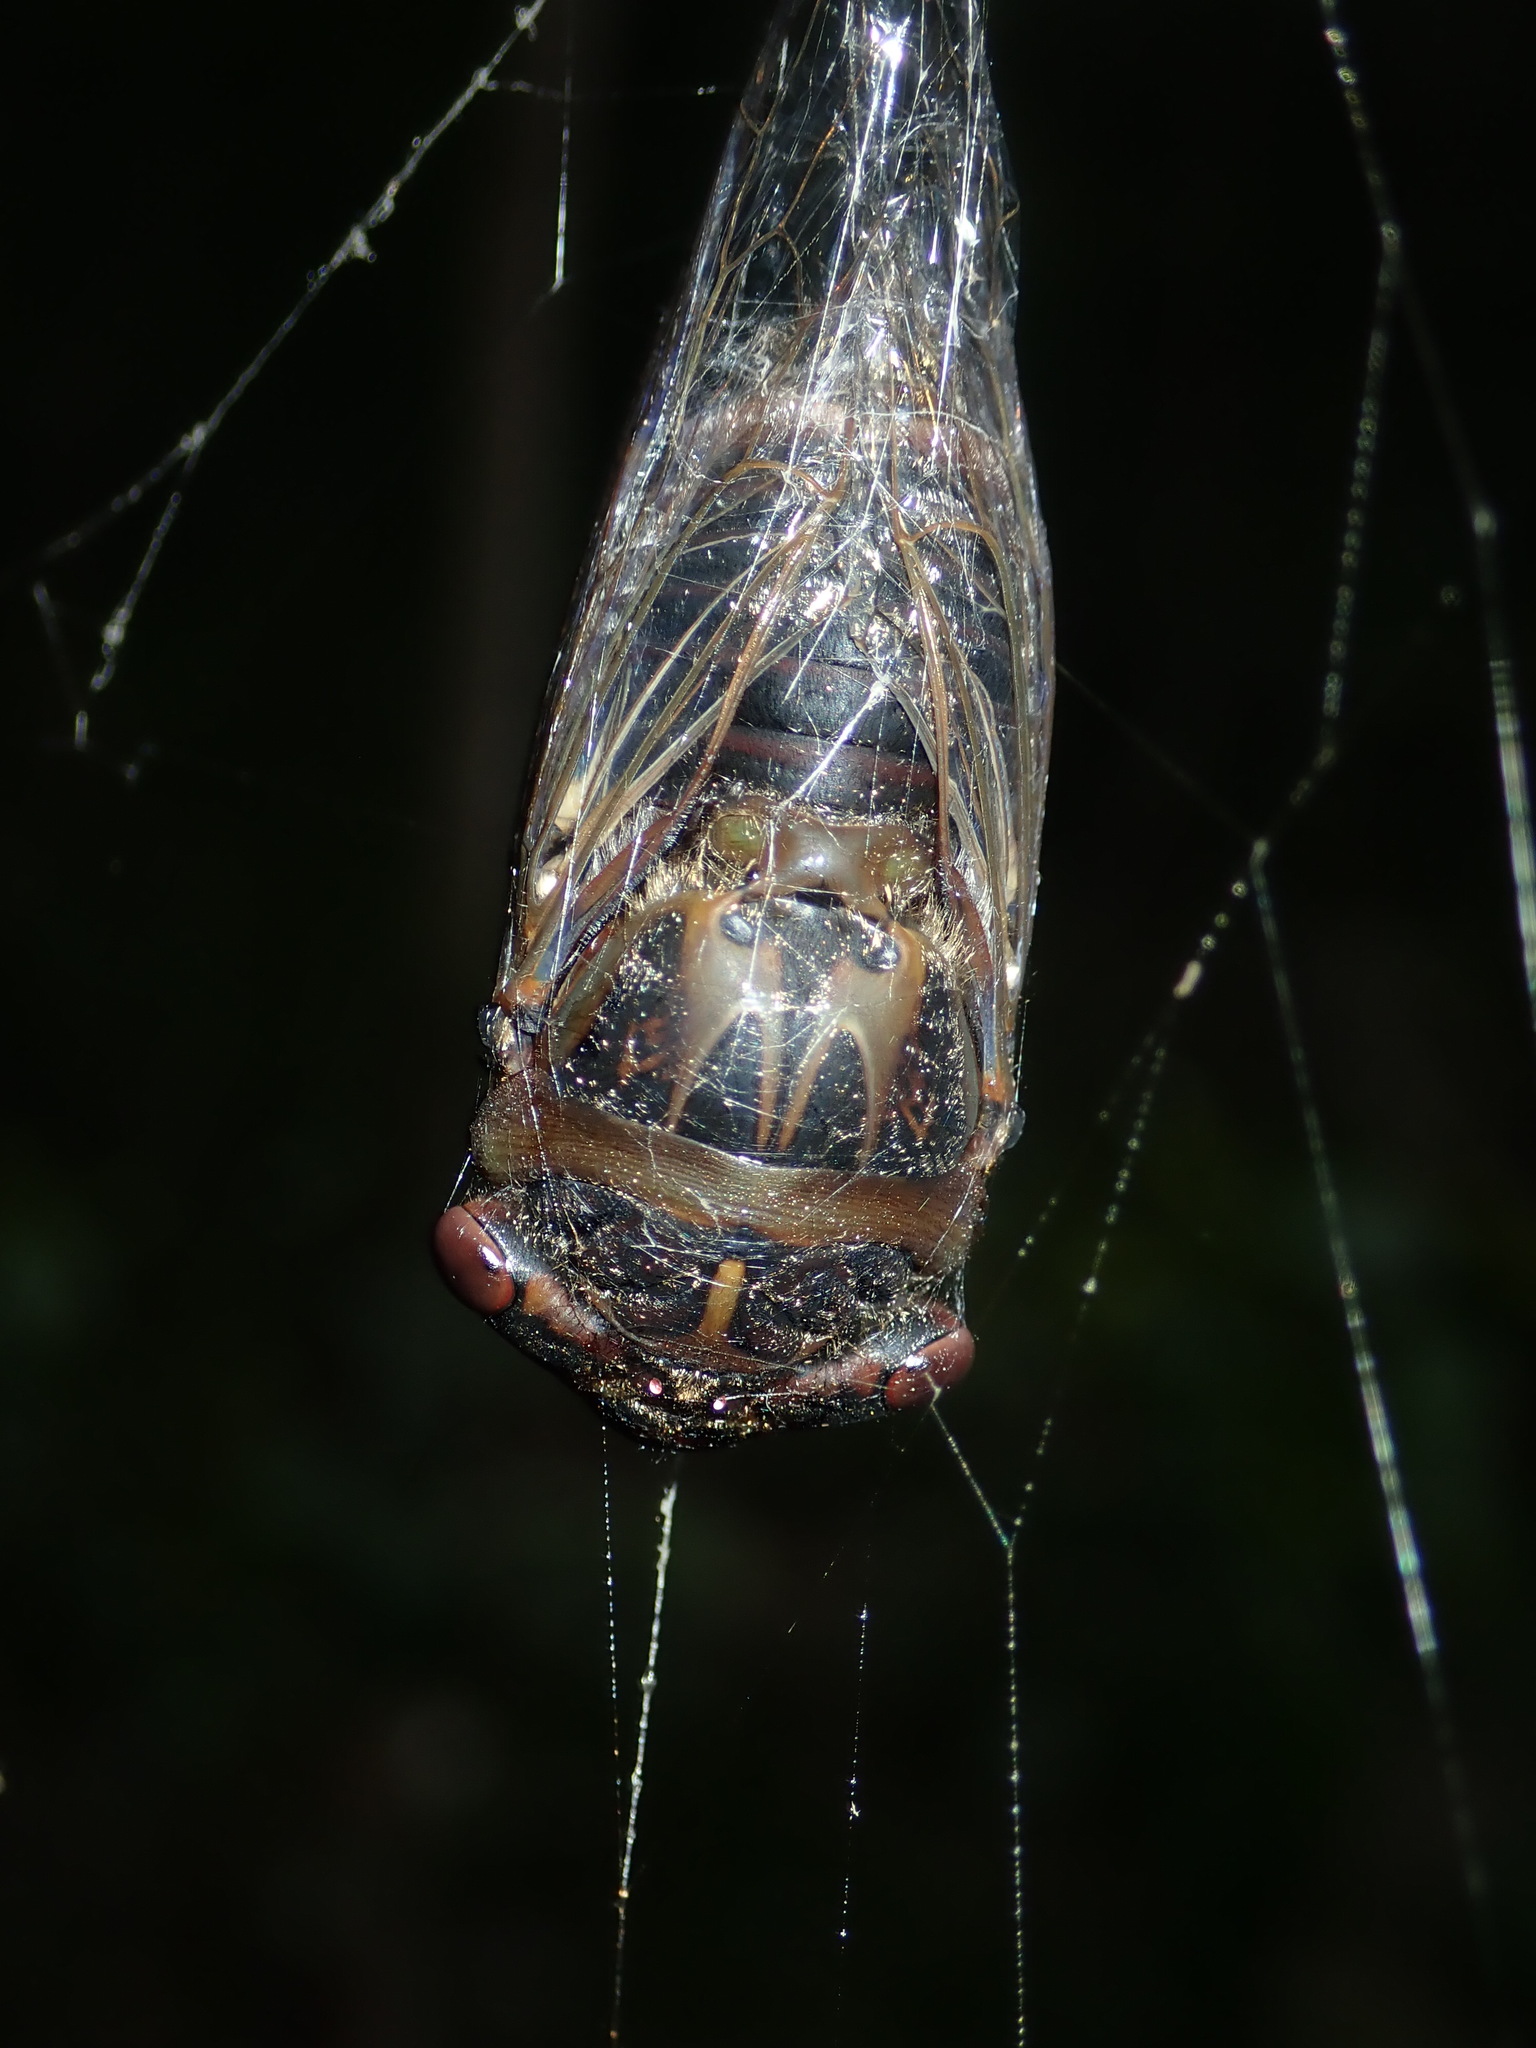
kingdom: Animalia
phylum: Arthropoda
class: Insecta
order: Hemiptera
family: Cicadidae
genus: Psaltoda
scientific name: Psaltoda plaga
